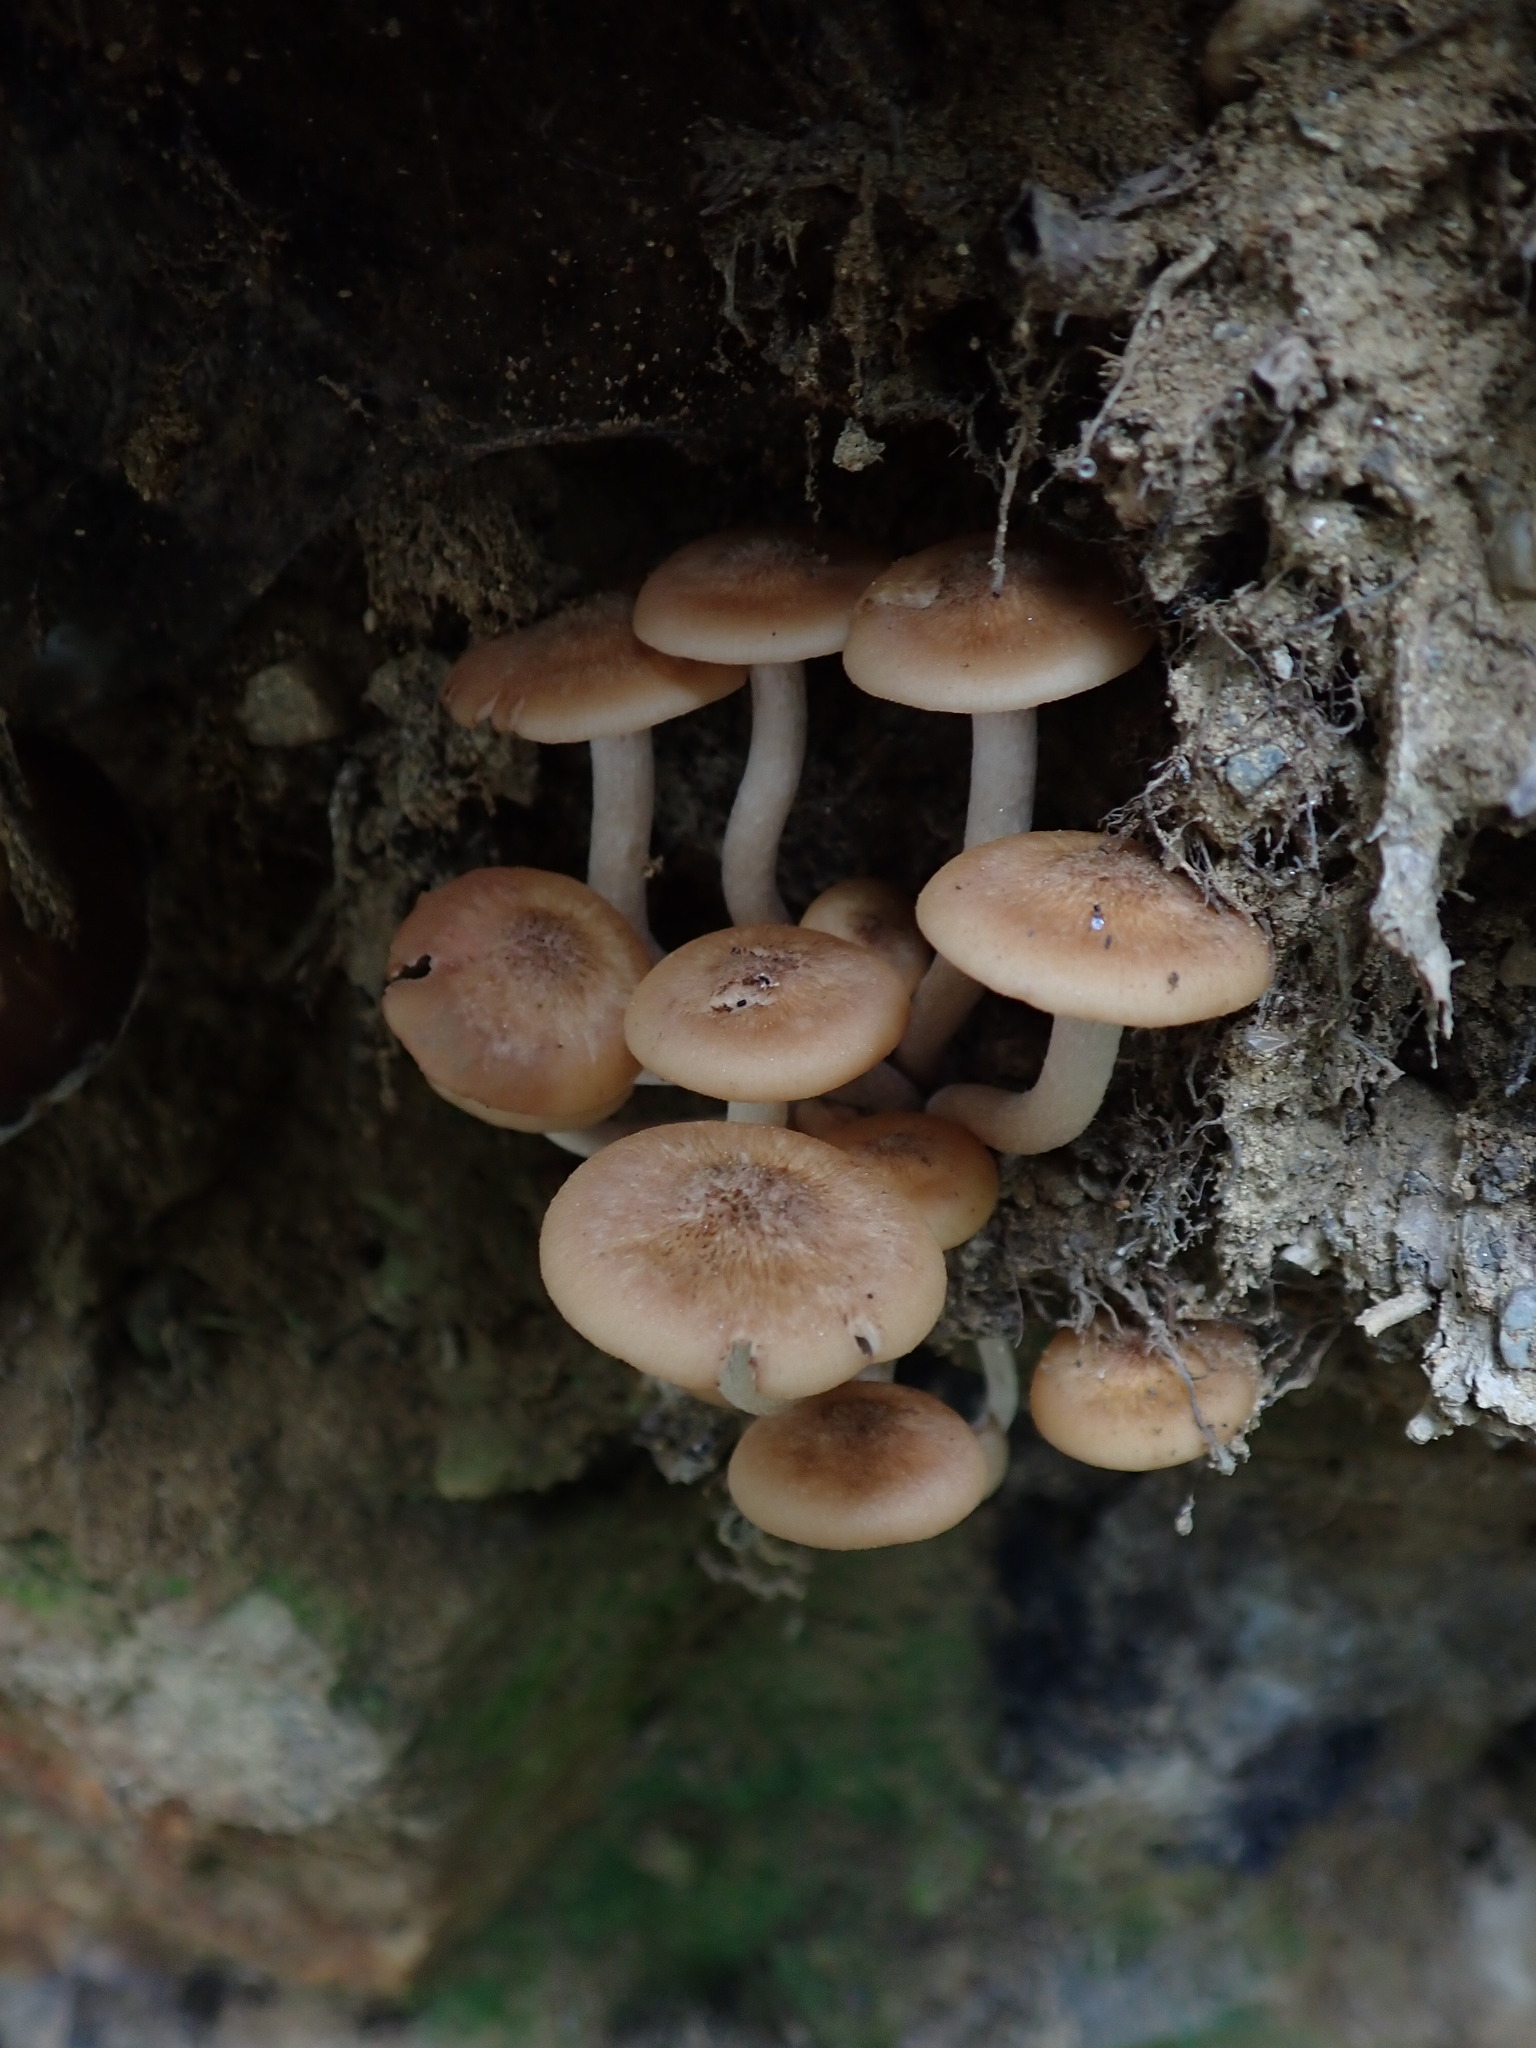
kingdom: Fungi
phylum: Basidiomycota
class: Agaricomycetes
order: Agaricales
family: Physalacriaceae
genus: Desarmillaria
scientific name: Desarmillaria caespitosa
